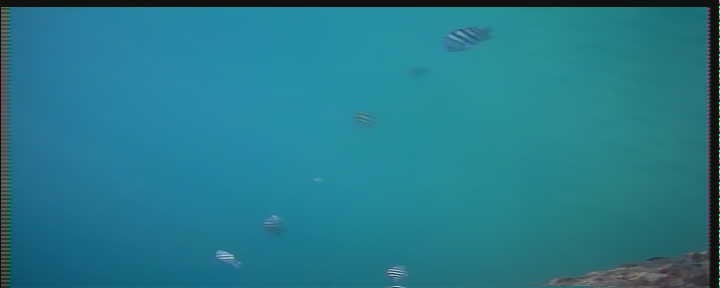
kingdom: Animalia
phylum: Chordata
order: Perciformes
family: Pomacentridae
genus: Abudefduf
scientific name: Abudefduf saxatilis
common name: Sergeant major
